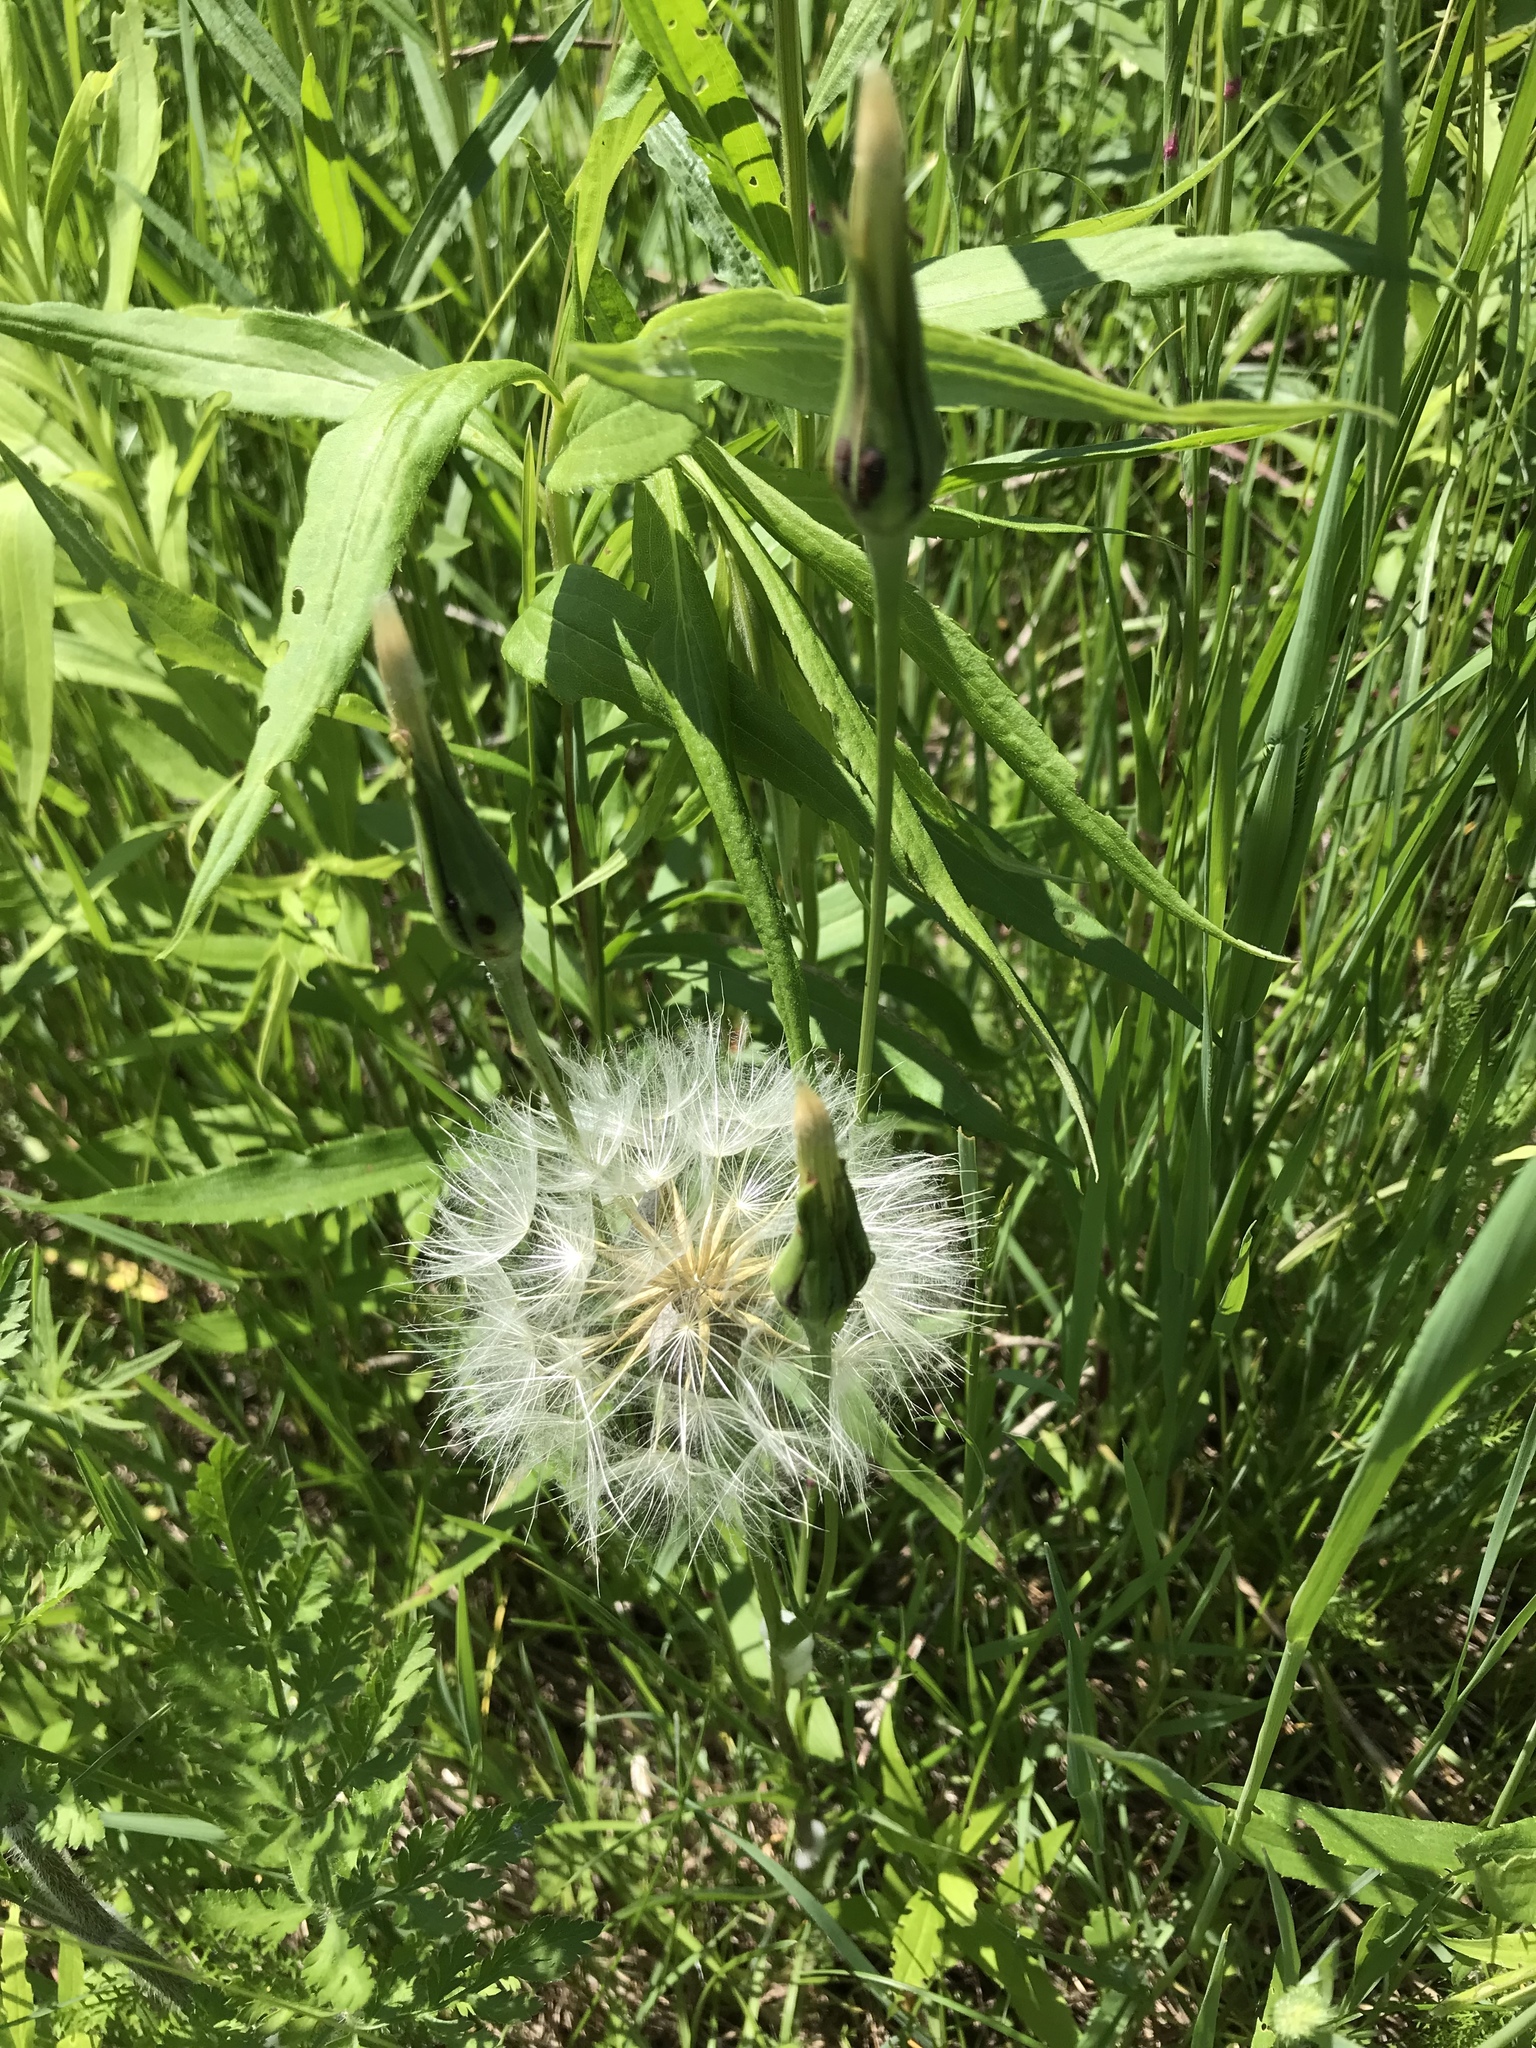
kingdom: Plantae
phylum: Tracheophyta
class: Magnoliopsida
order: Asterales
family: Asteraceae
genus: Tragopogon
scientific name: Tragopogon pratensis
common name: Goat's-beard
